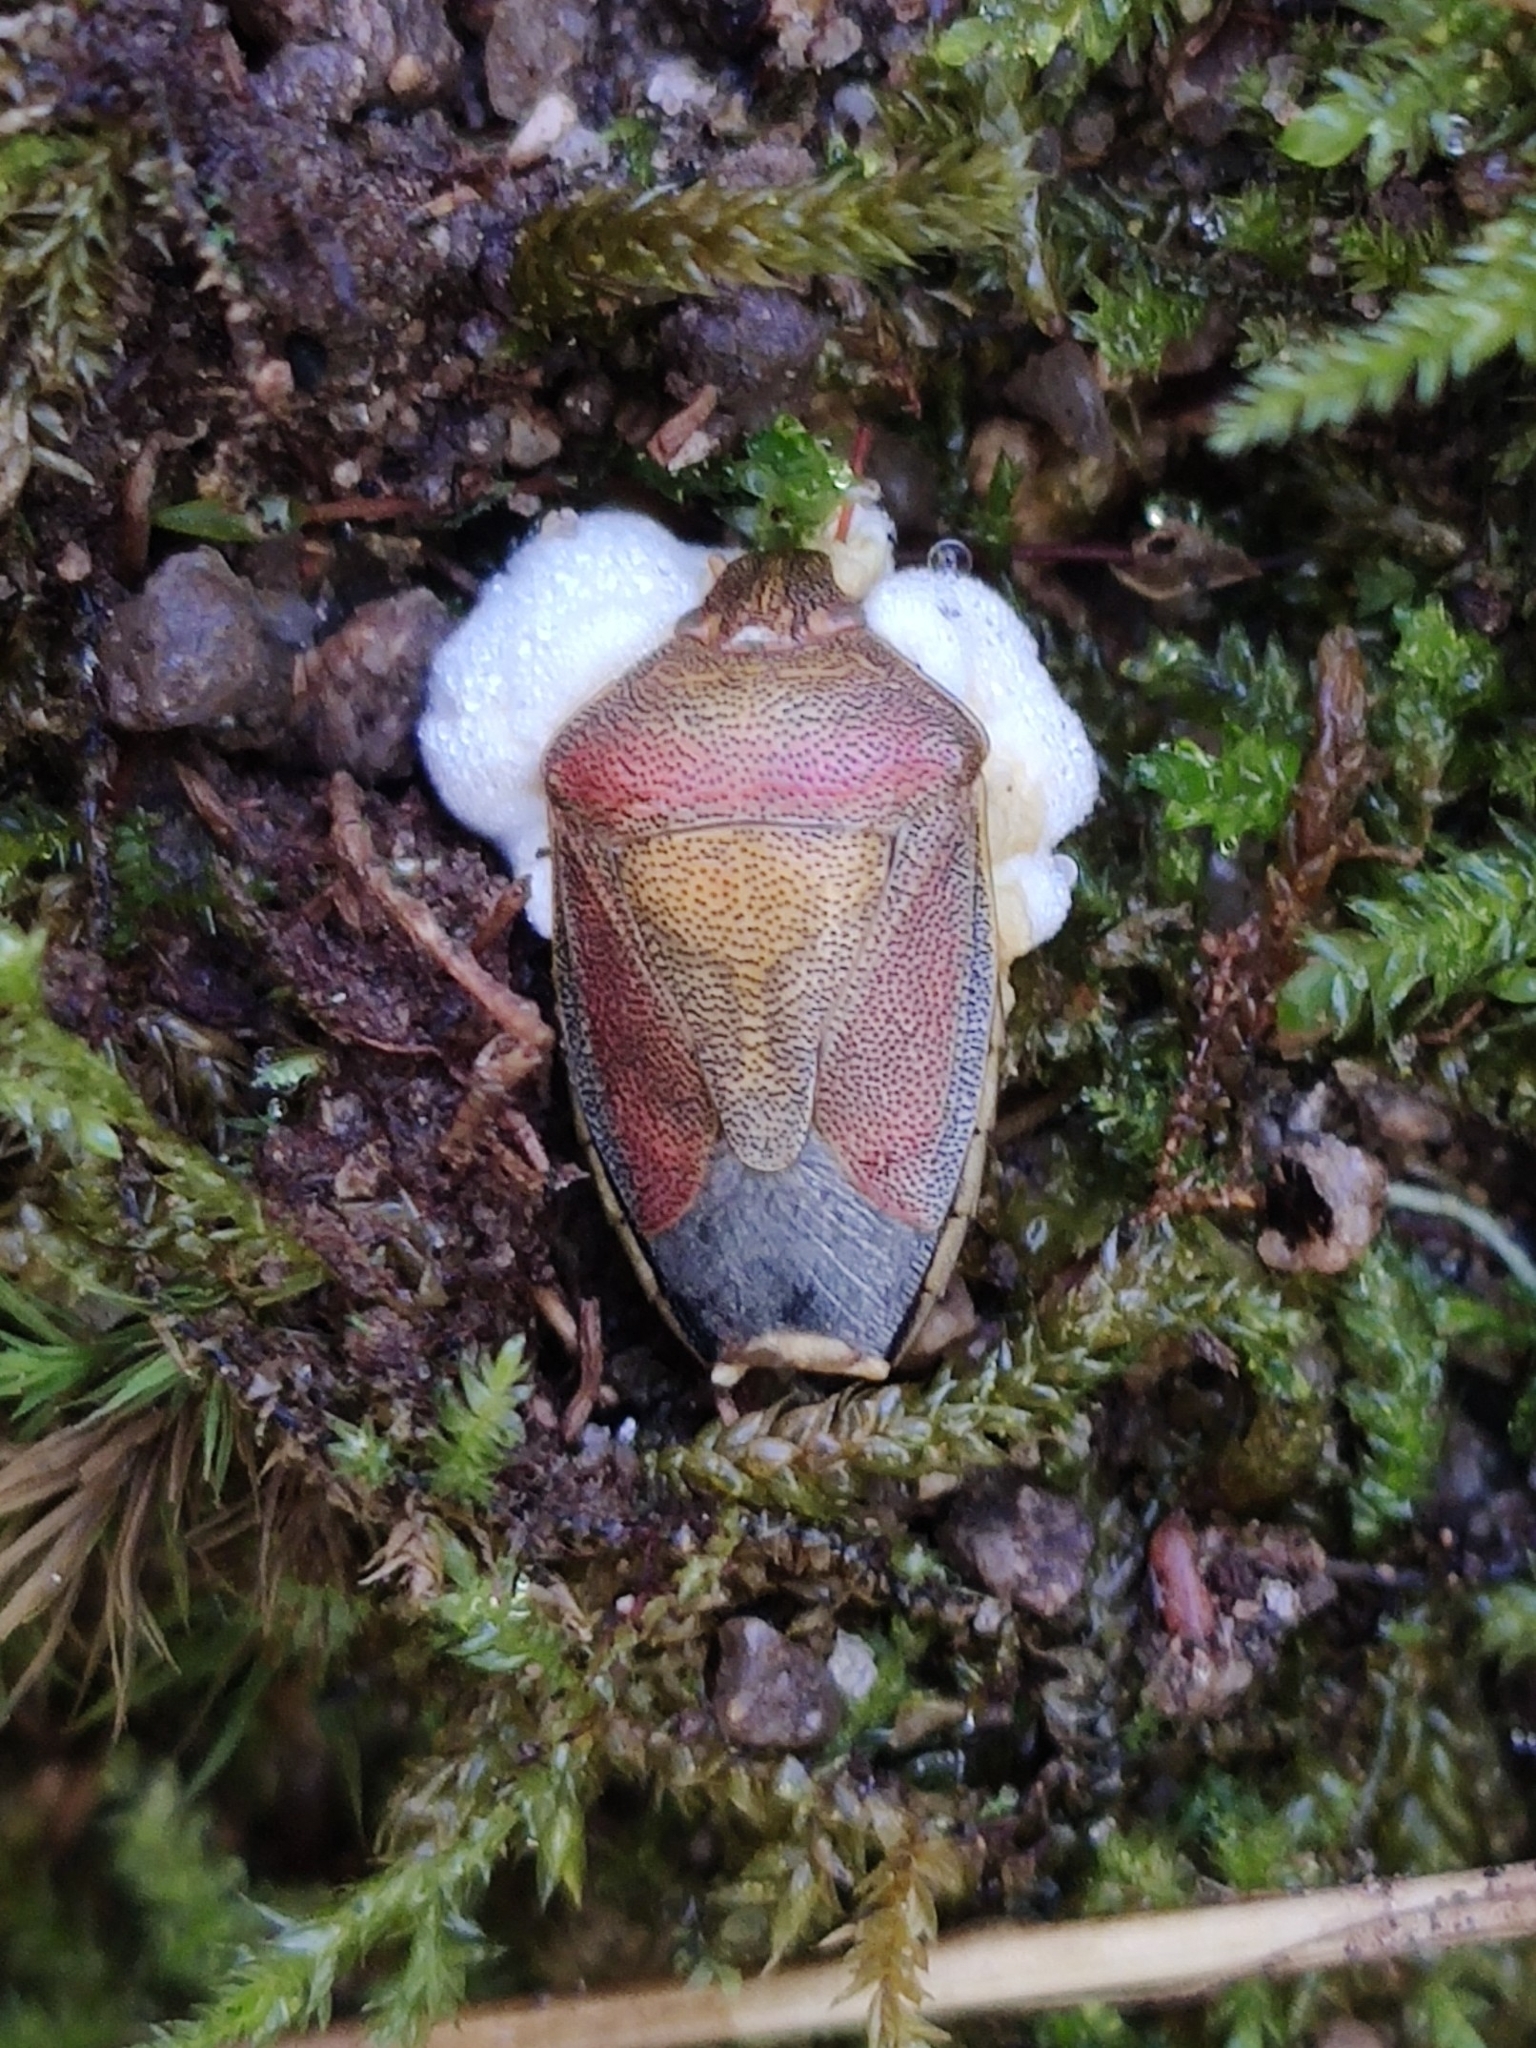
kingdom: Animalia
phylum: Arthropoda
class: Insecta
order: Hemiptera
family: Pentatomidae
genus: Piezodorus
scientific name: Piezodorus lituratus
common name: Stink bug
